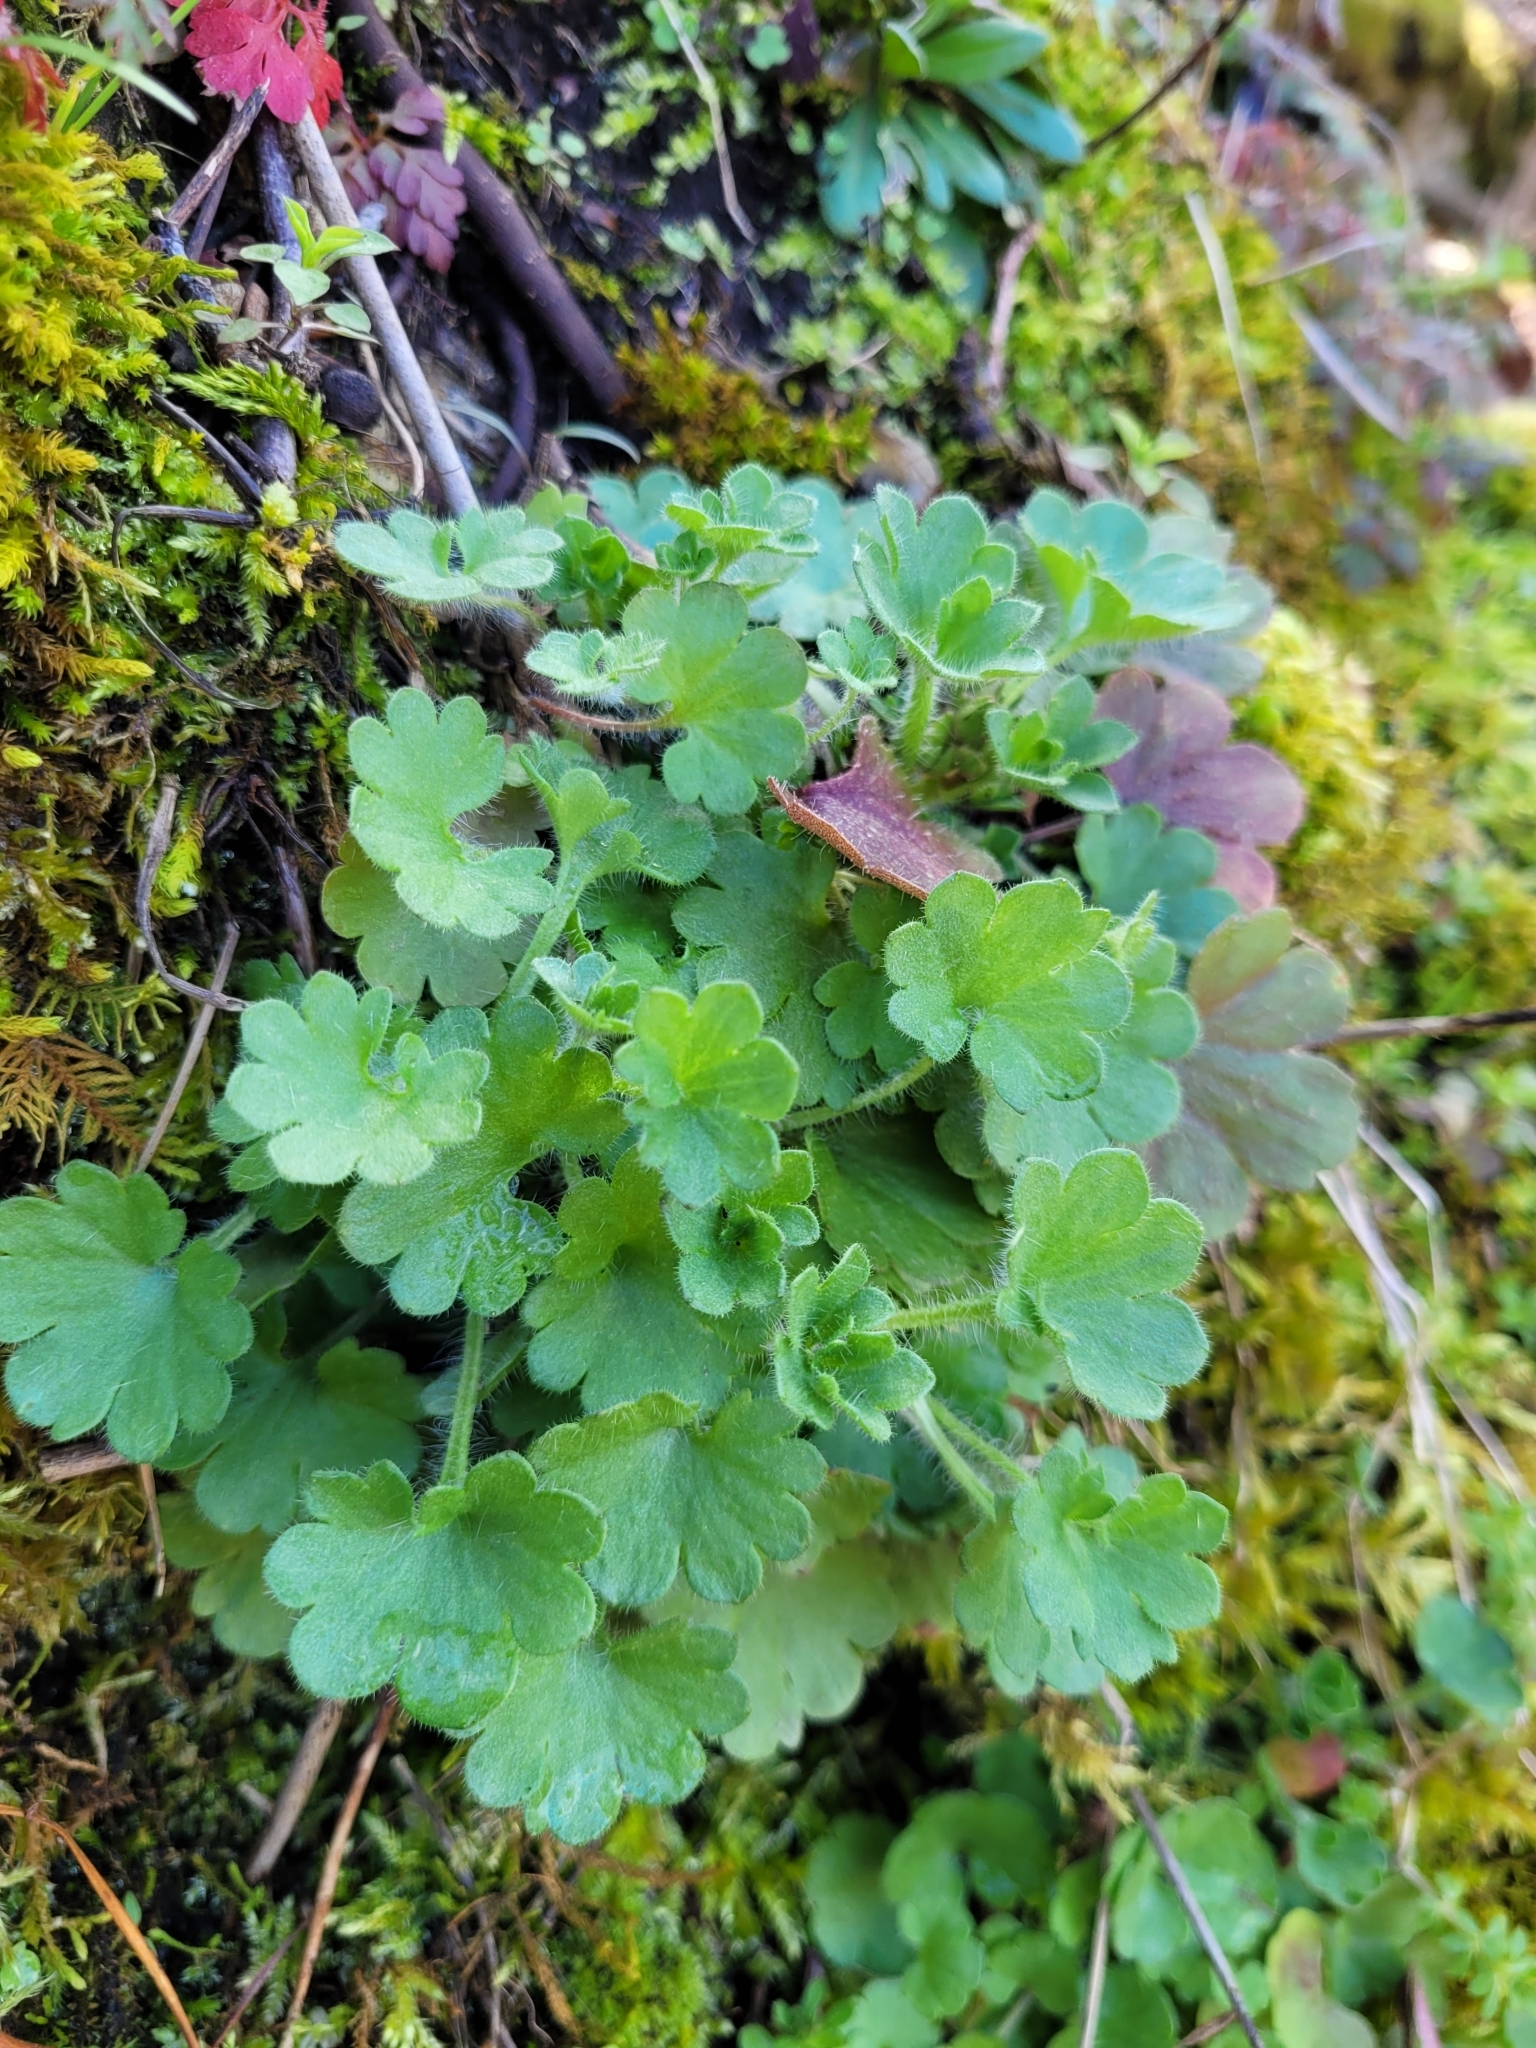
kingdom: Plantae
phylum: Tracheophyta
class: Magnoliopsida
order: Saxifragales
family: Saxifragaceae
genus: Saxifraga
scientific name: Saxifraga granulata
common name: Meadow saxifrage
